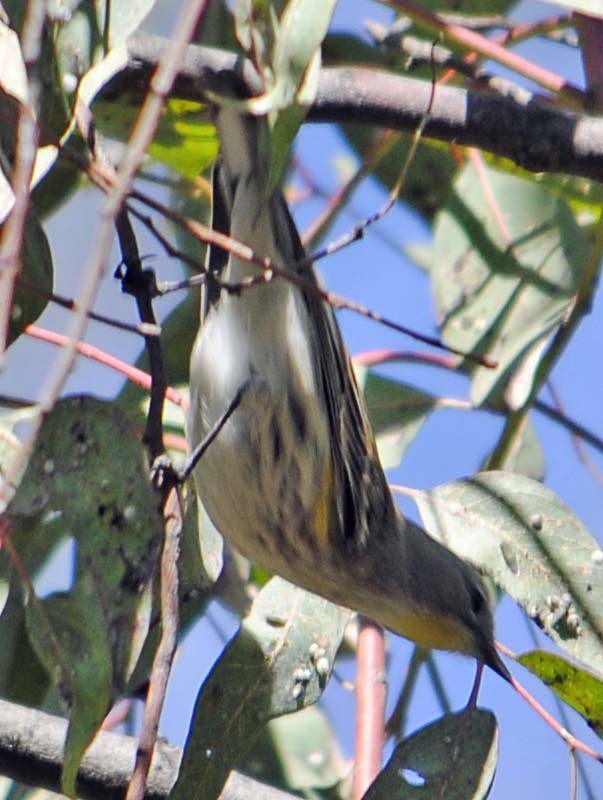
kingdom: Animalia
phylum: Chordata
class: Aves
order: Passeriformes
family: Parulidae
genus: Setophaga
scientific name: Setophaga coronata
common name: Myrtle warbler
